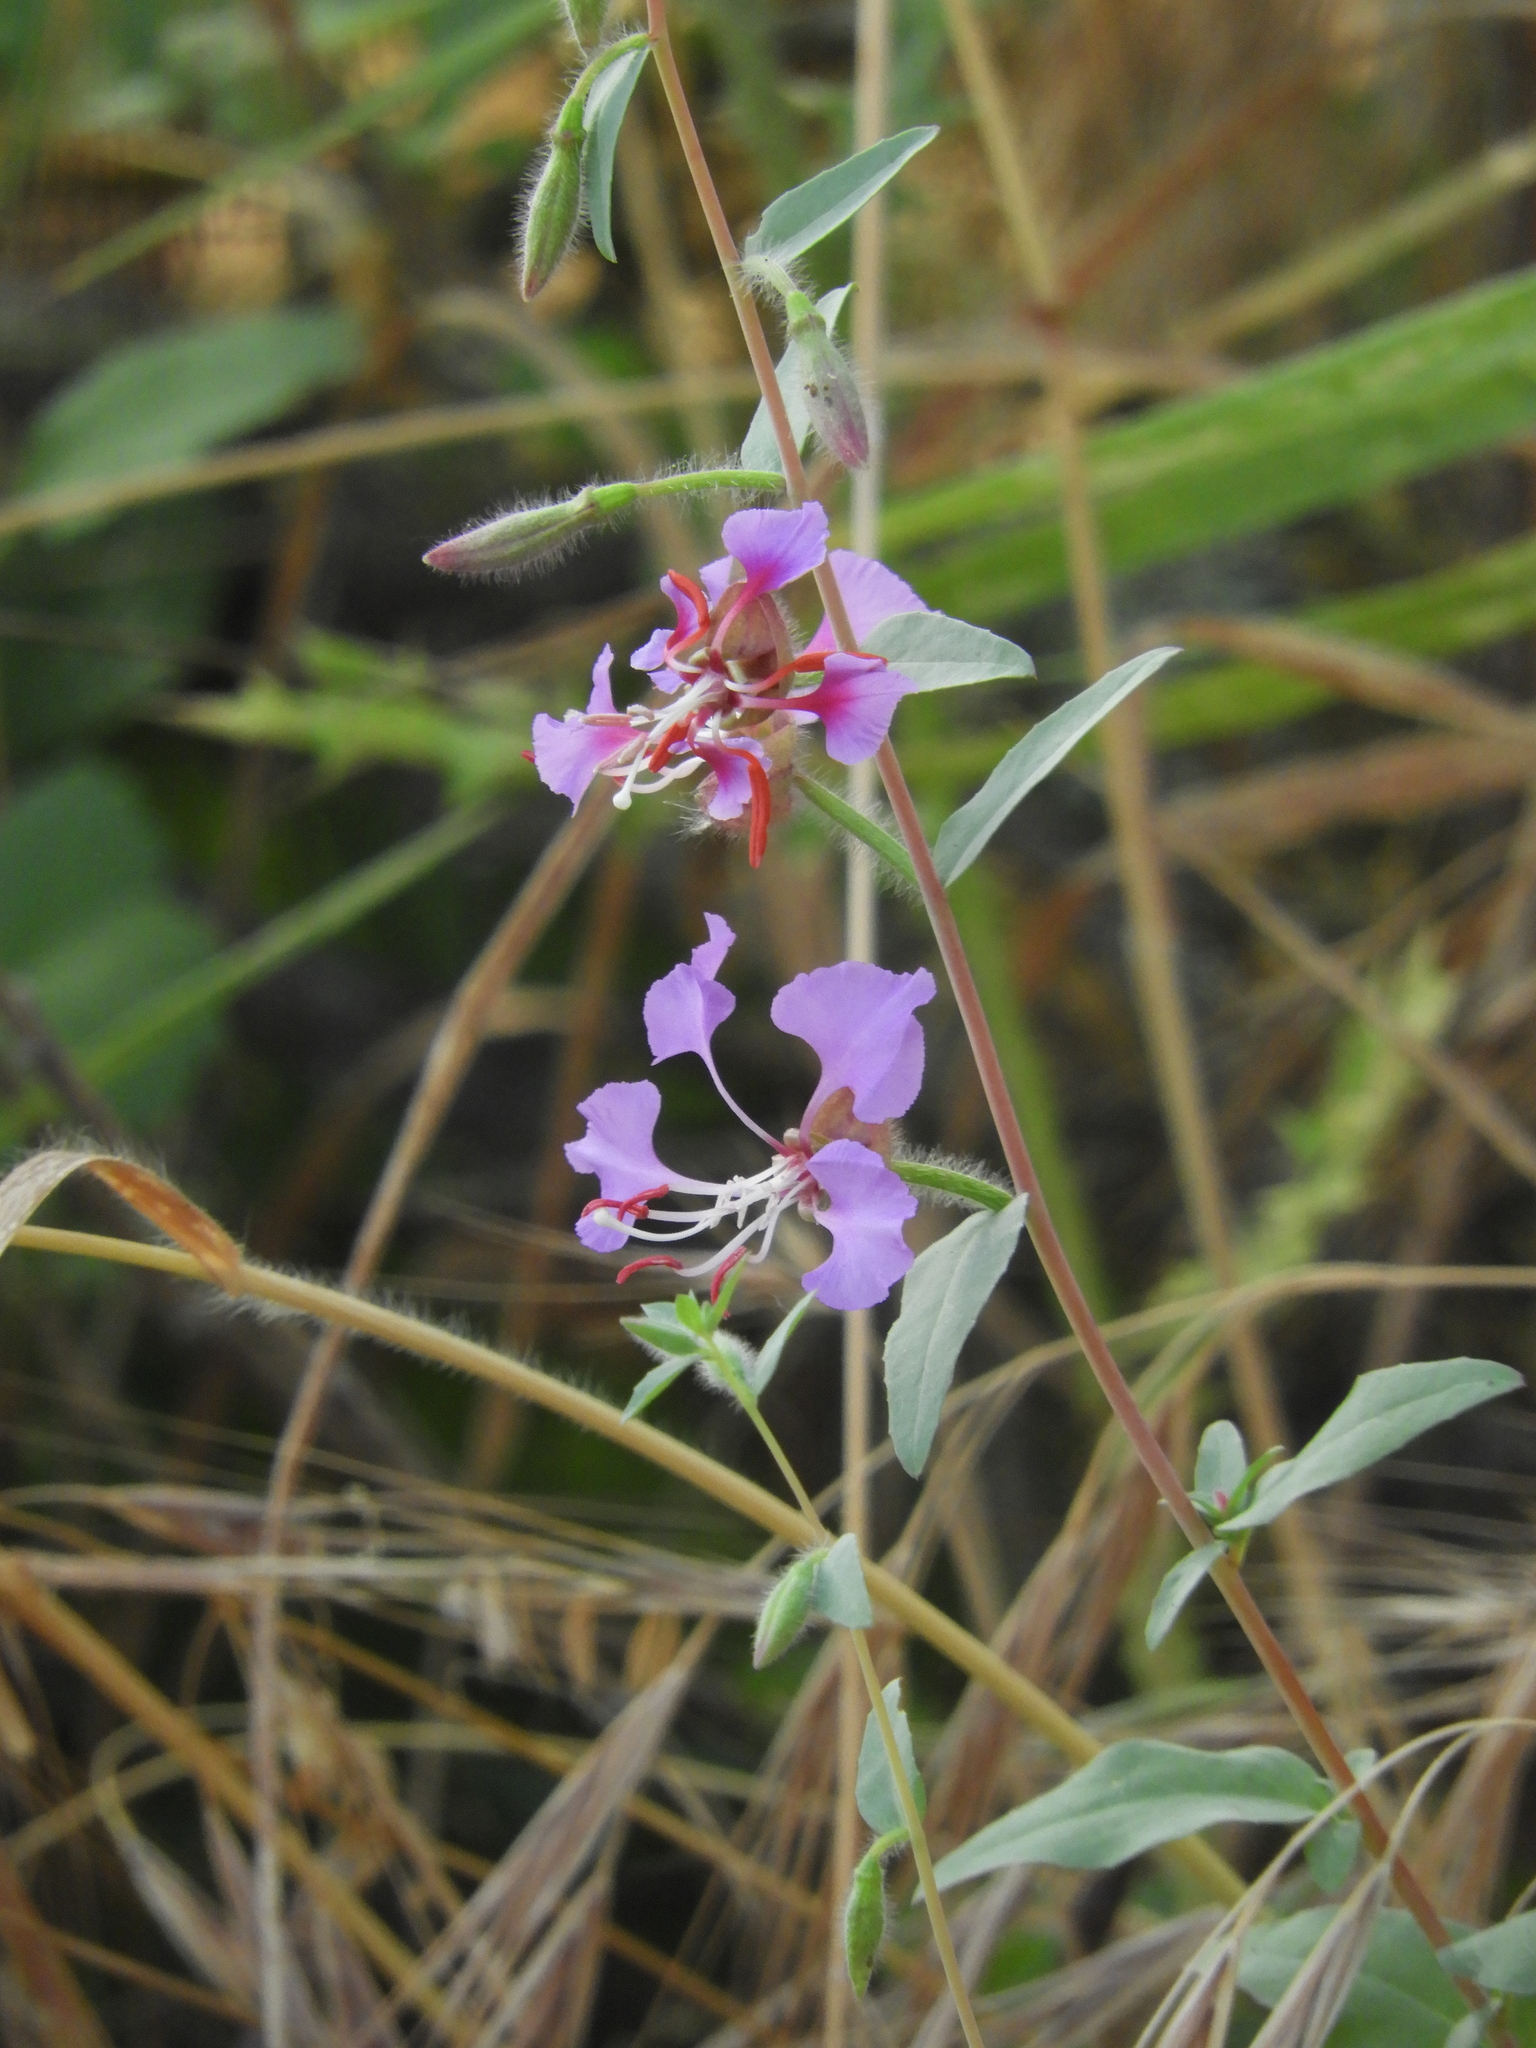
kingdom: Plantae
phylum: Tracheophyta
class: Magnoliopsida
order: Myrtales
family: Onagraceae
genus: Clarkia
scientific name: Clarkia unguiculata
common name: Clarkia
